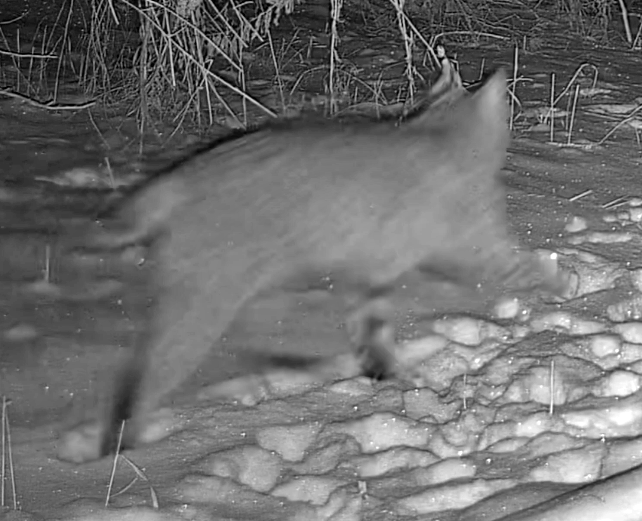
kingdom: Animalia
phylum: Chordata
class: Mammalia
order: Carnivora
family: Felidae
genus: Lynx
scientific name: Lynx rufus
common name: Bobcat
